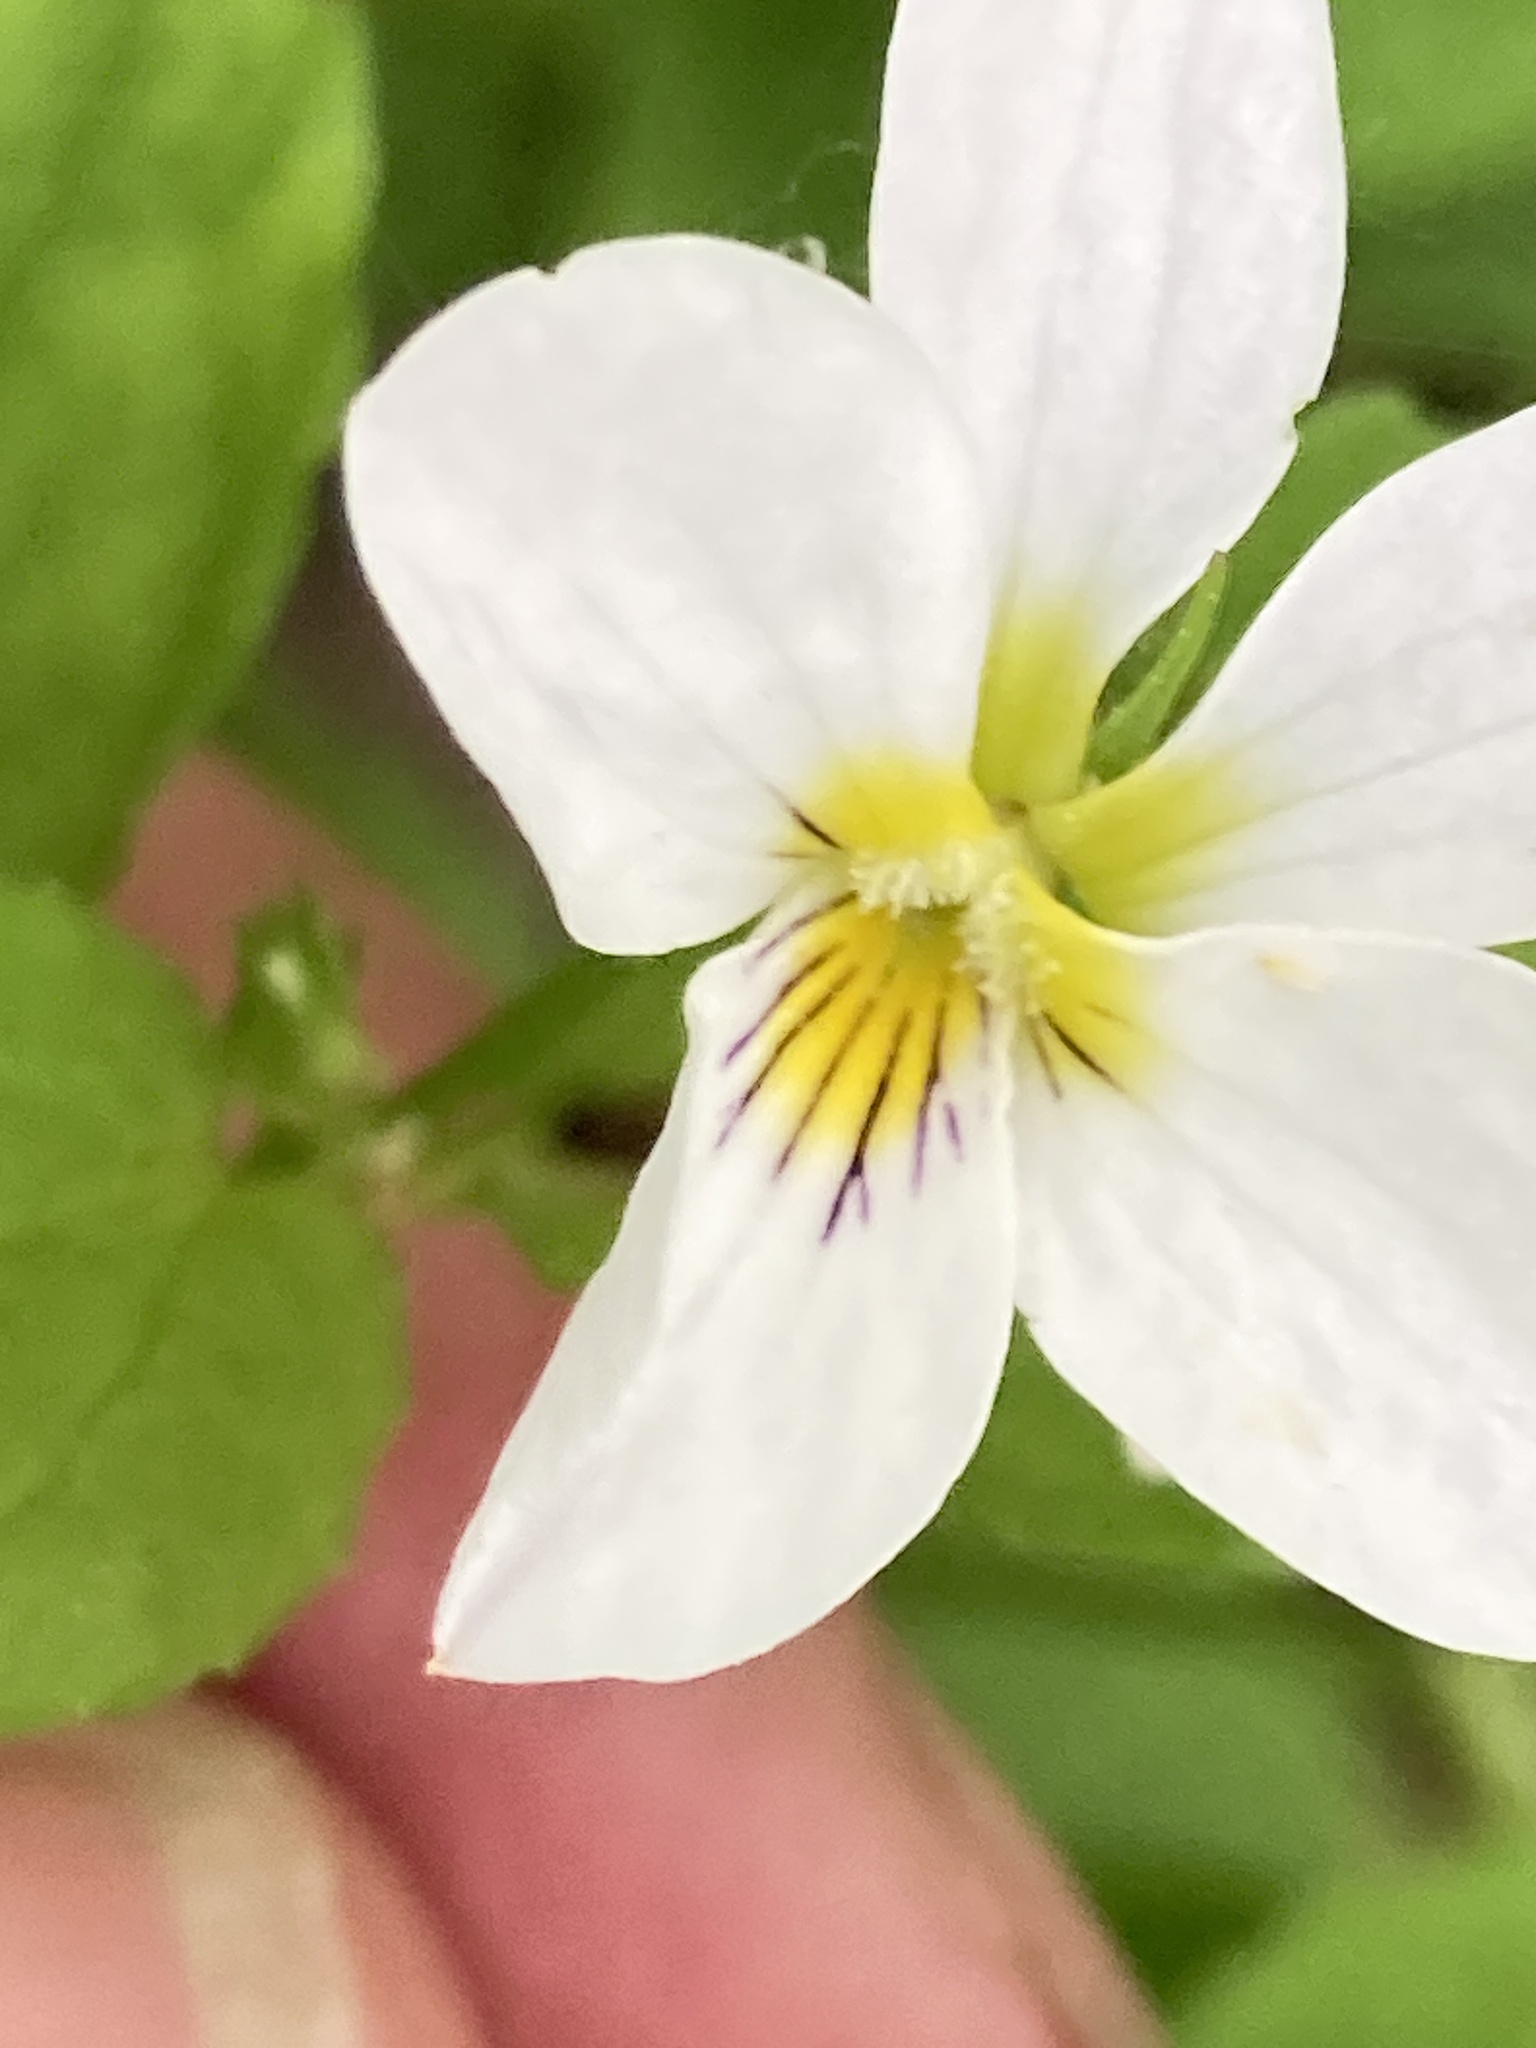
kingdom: Plantae
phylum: Tracheophyta
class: Magnoliopsida
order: Malpighiales
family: Violaceae
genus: Viola
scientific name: Viola canadensis
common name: Canada violet
